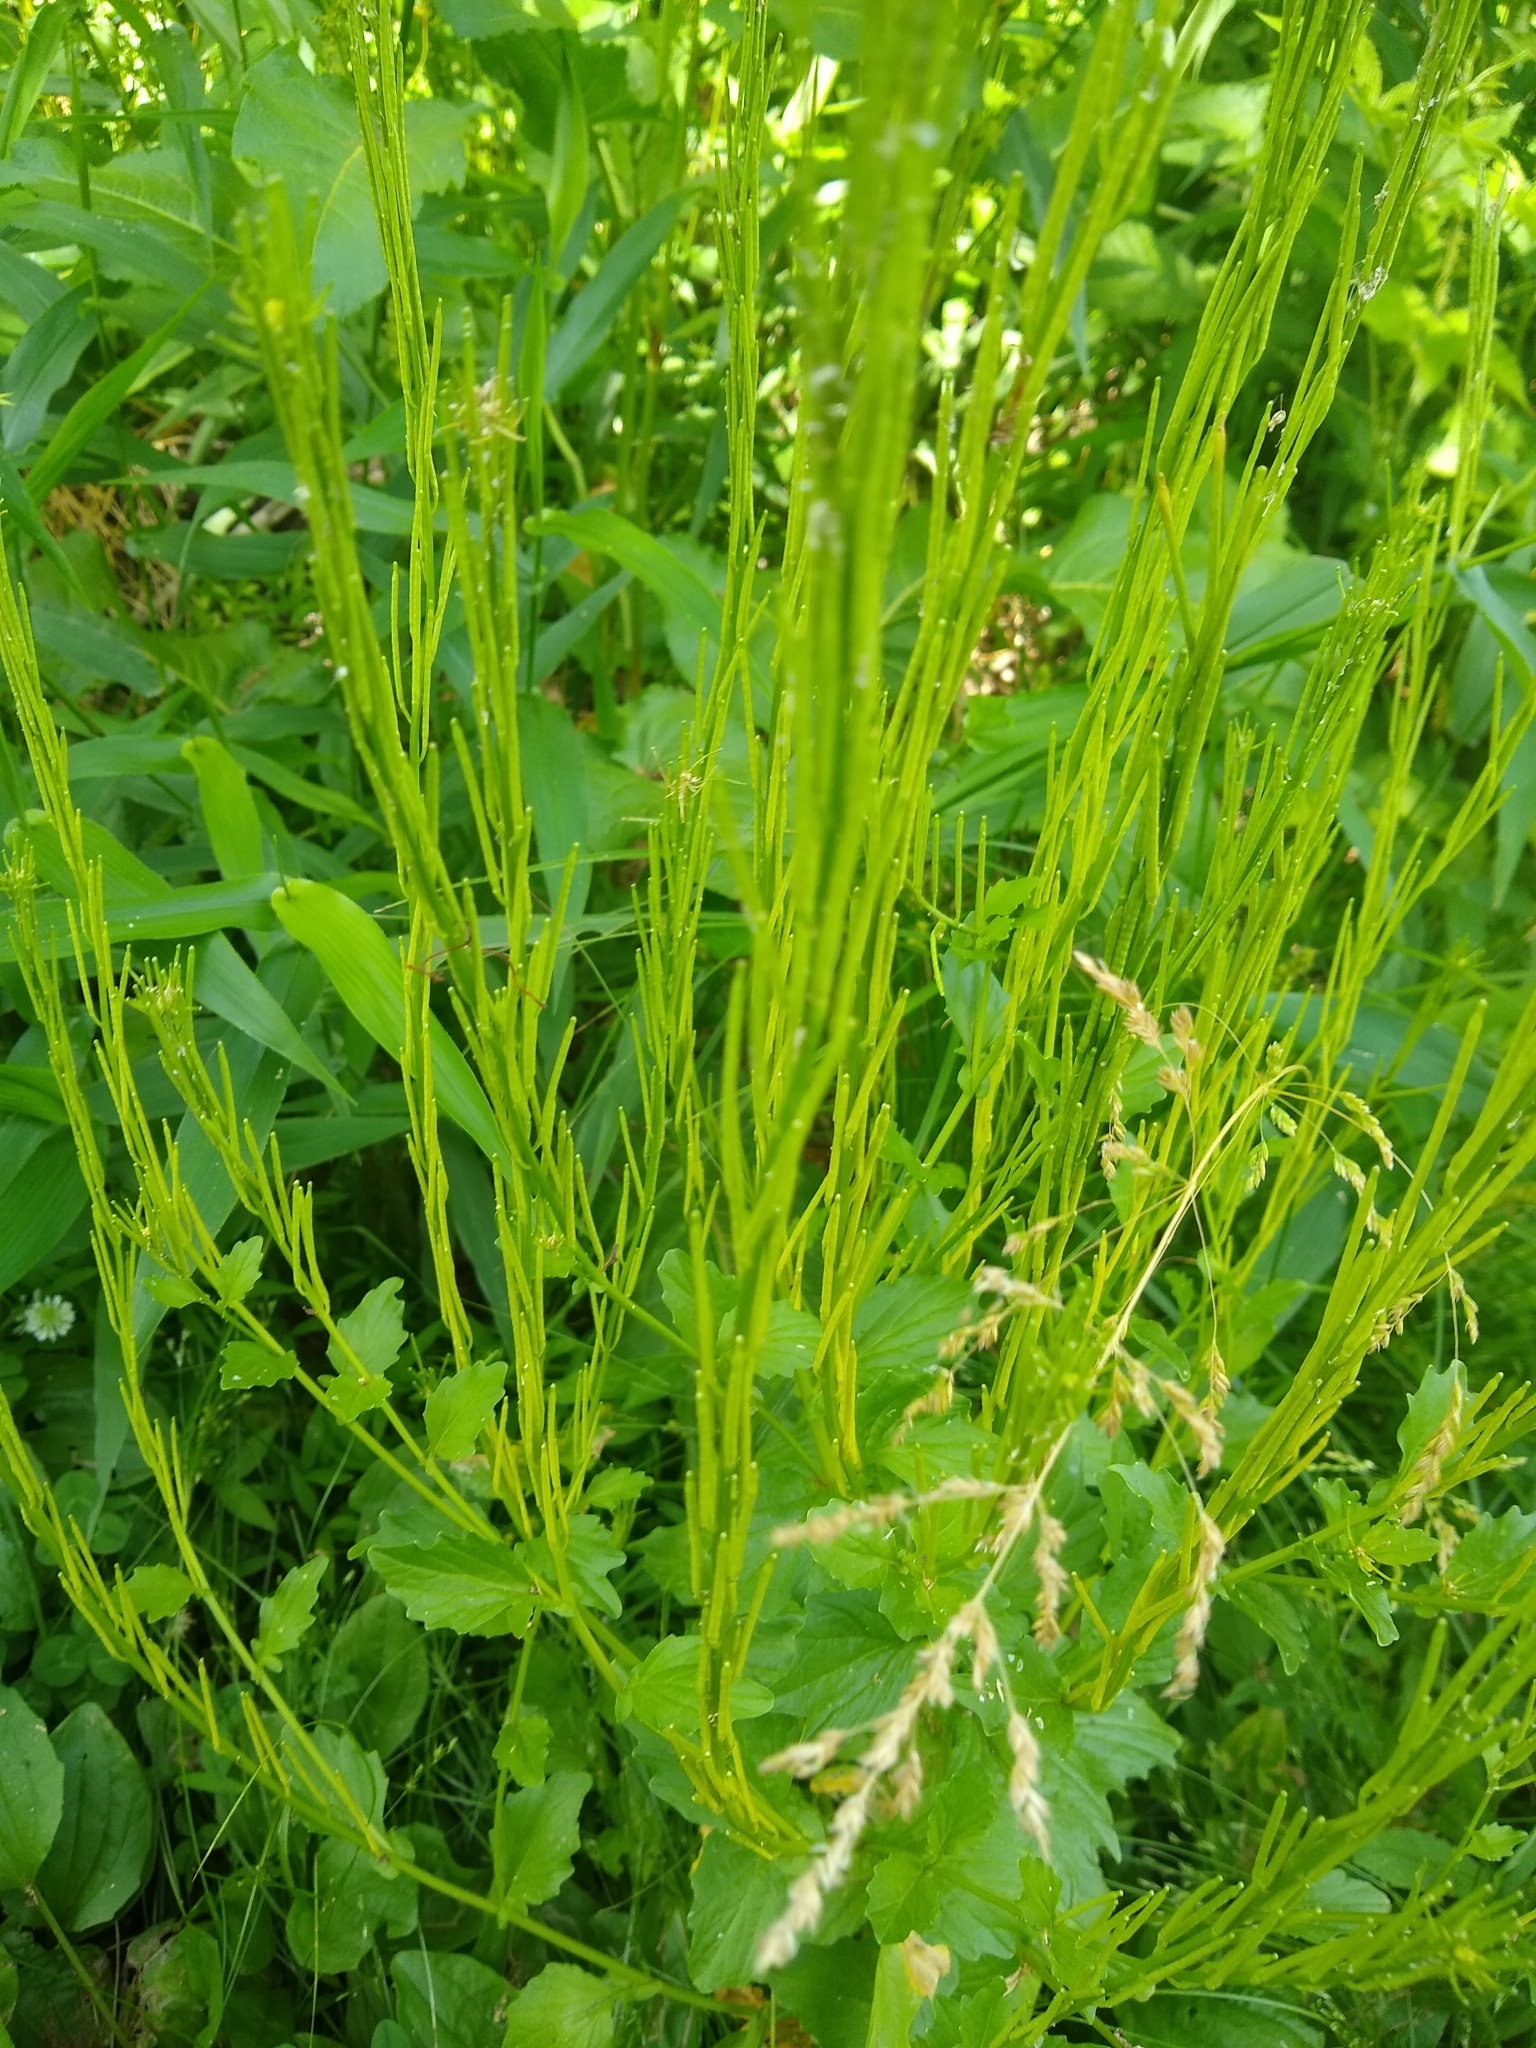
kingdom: Plantae
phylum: Tracheophyta
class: Magnoliopsida
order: Brassicales
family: Brassicaceae
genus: Barbarea
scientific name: Barbarea stricta
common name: Small-flowered winter-cress
